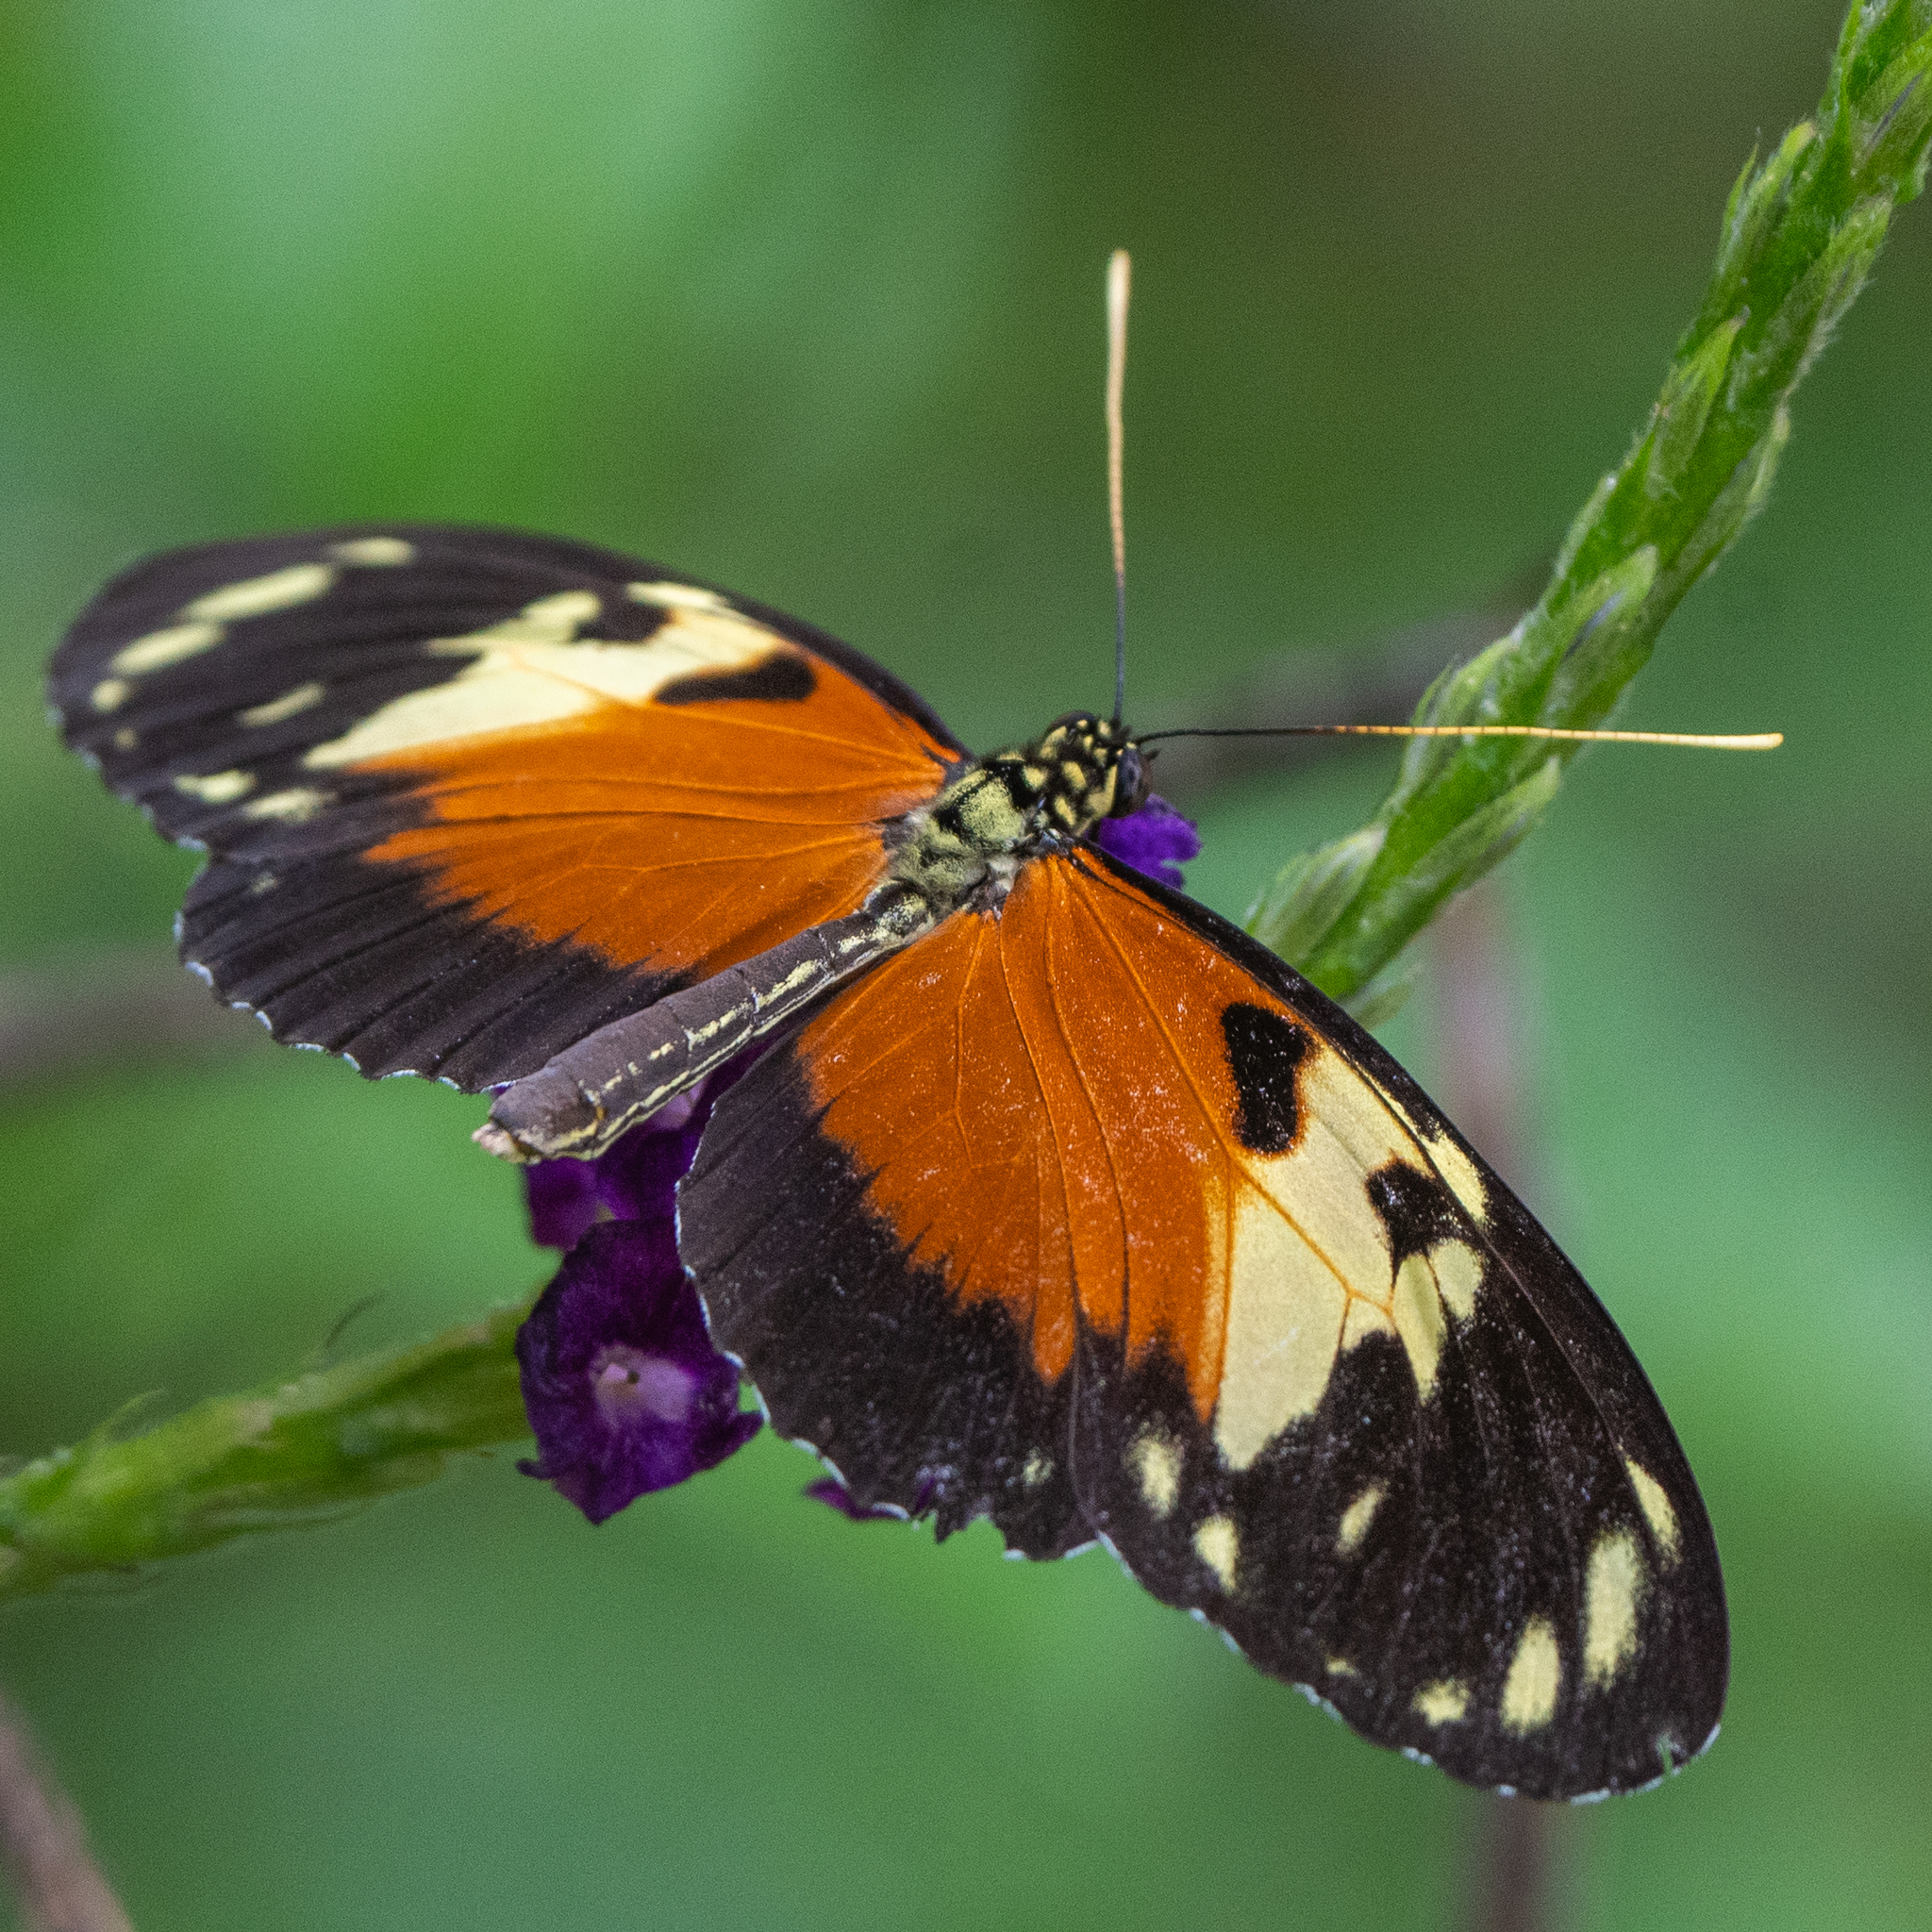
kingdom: Animalia
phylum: Arthropoda
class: Insecta
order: Lepidoptera
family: Nymphalidae
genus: Heliconius
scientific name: Heliconius hecale
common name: Tiger longwing
